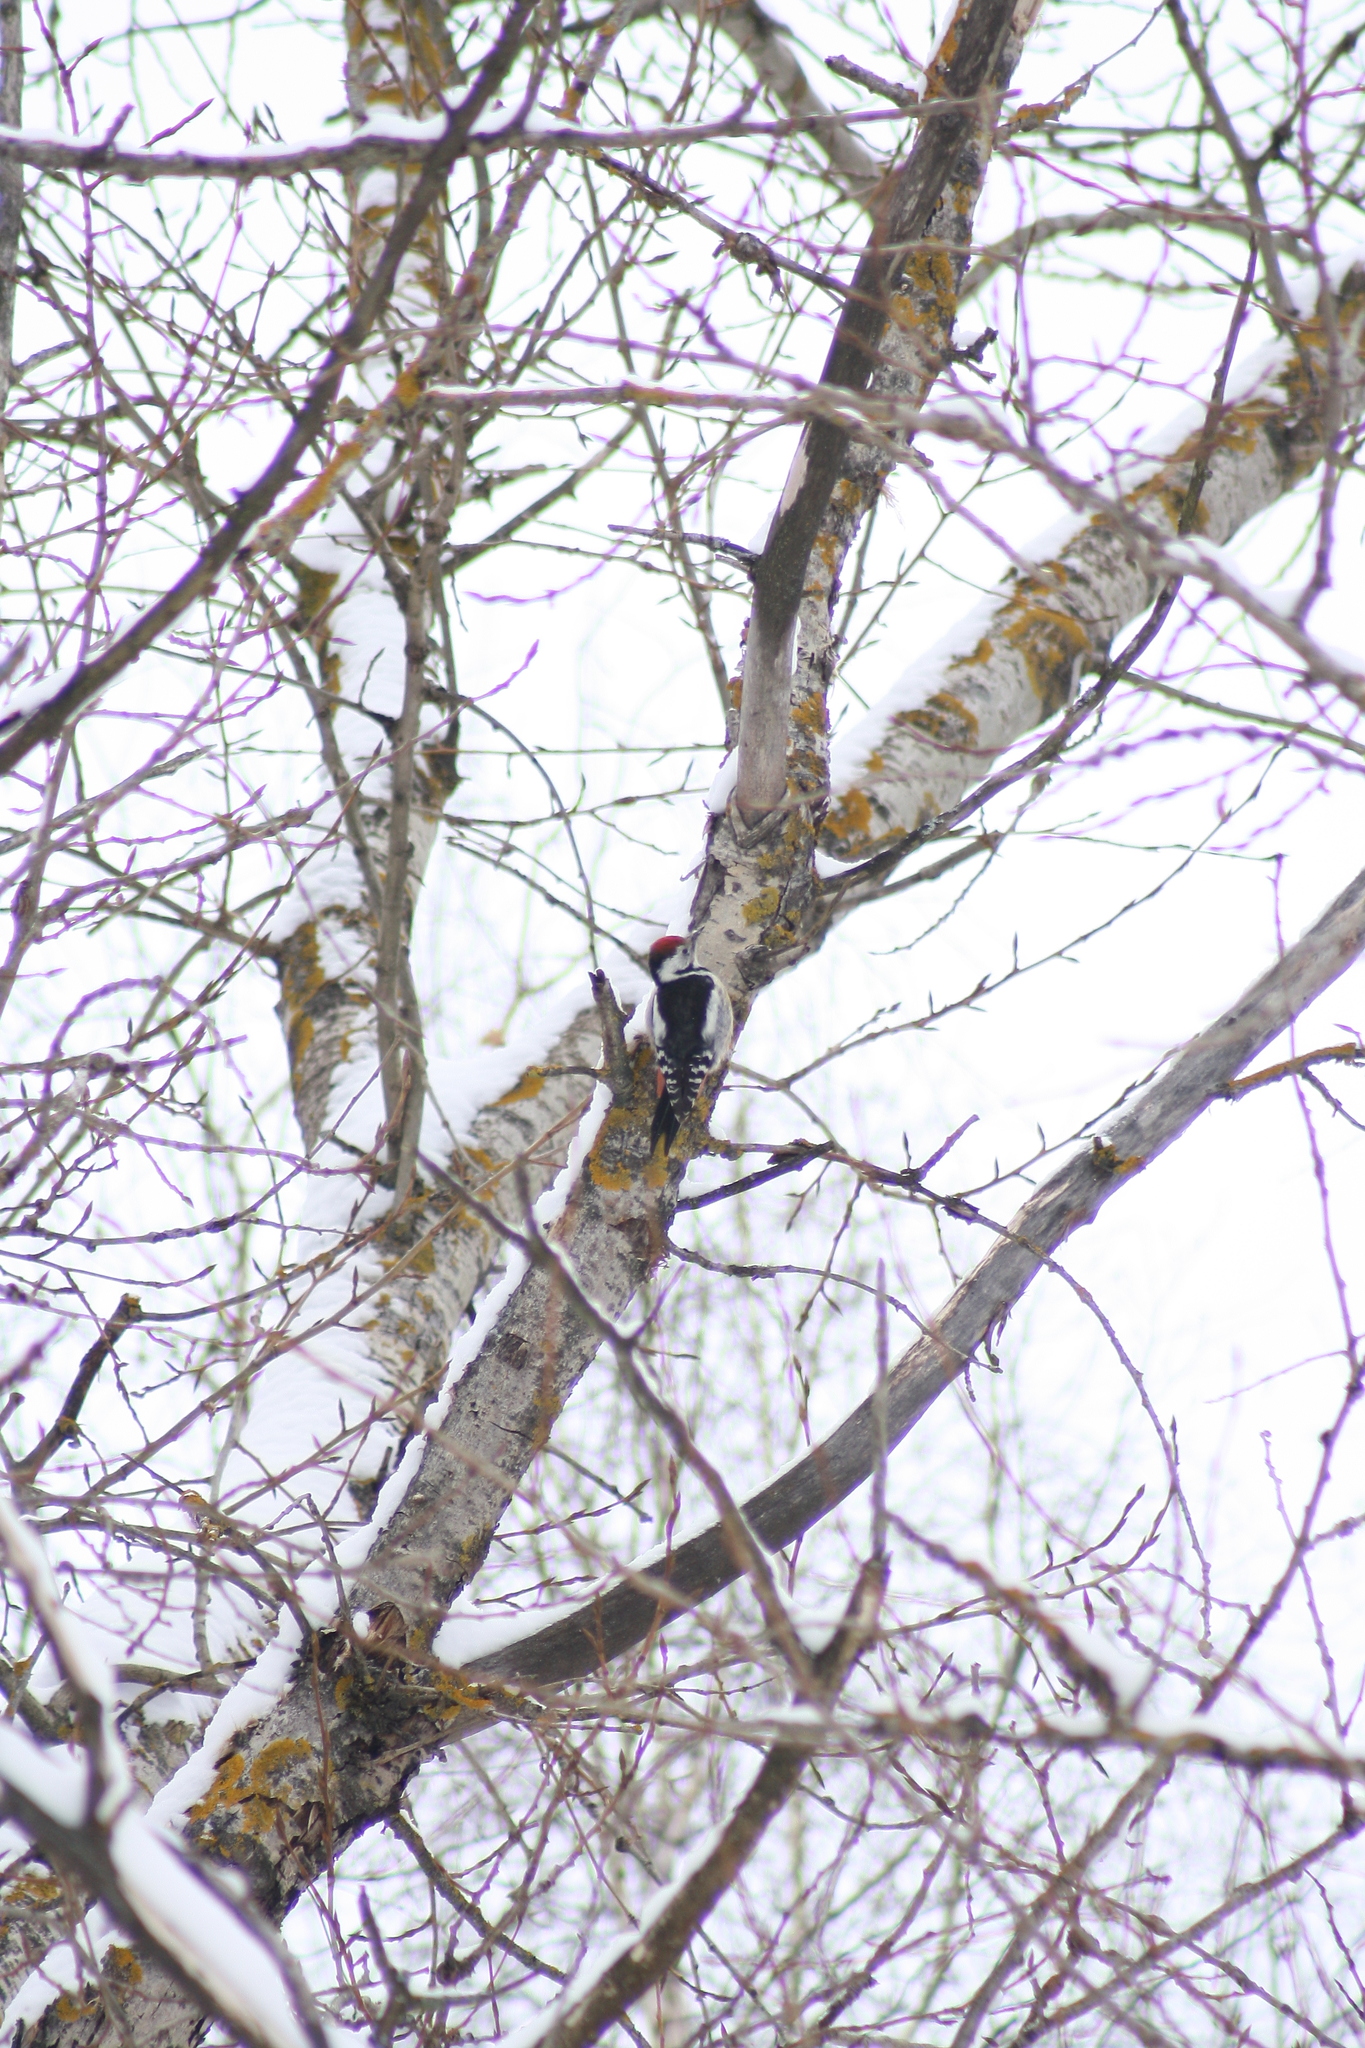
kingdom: Animalia
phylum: Chordata
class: Aves
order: Piciformes
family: Picidae
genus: Dendrocoptes
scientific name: Dendrocoptes medius
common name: Middle spotted woodpecker
